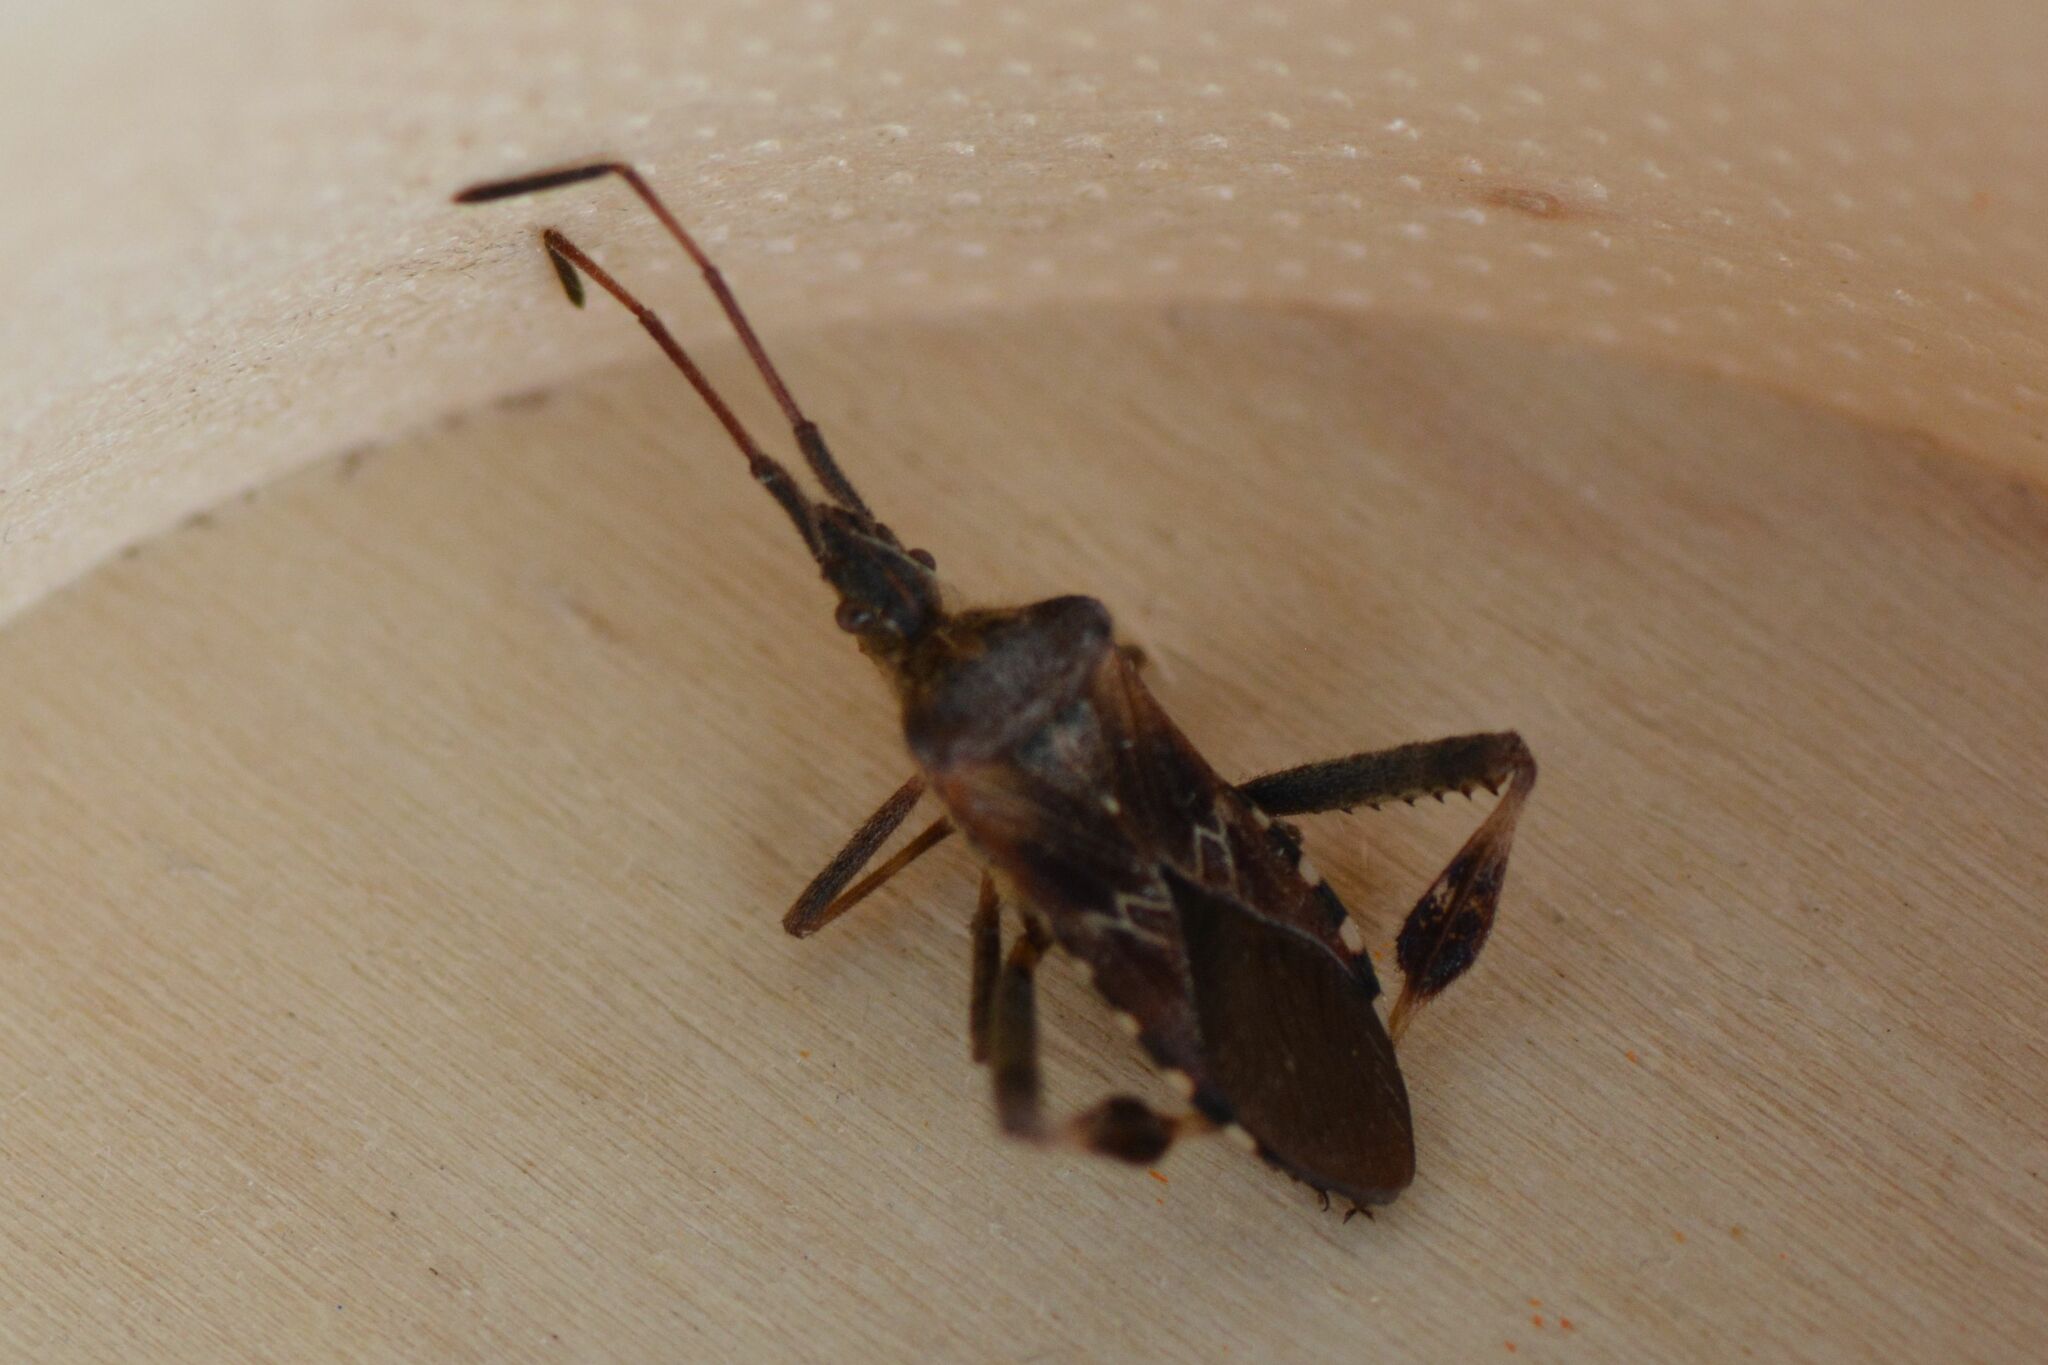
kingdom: Animalia
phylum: Arthropoda
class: Insecta
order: Hemiptera
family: Coreidae
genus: Leptoglossus
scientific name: Leptoglossus occidentalis
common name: Western conifer-seed bug
